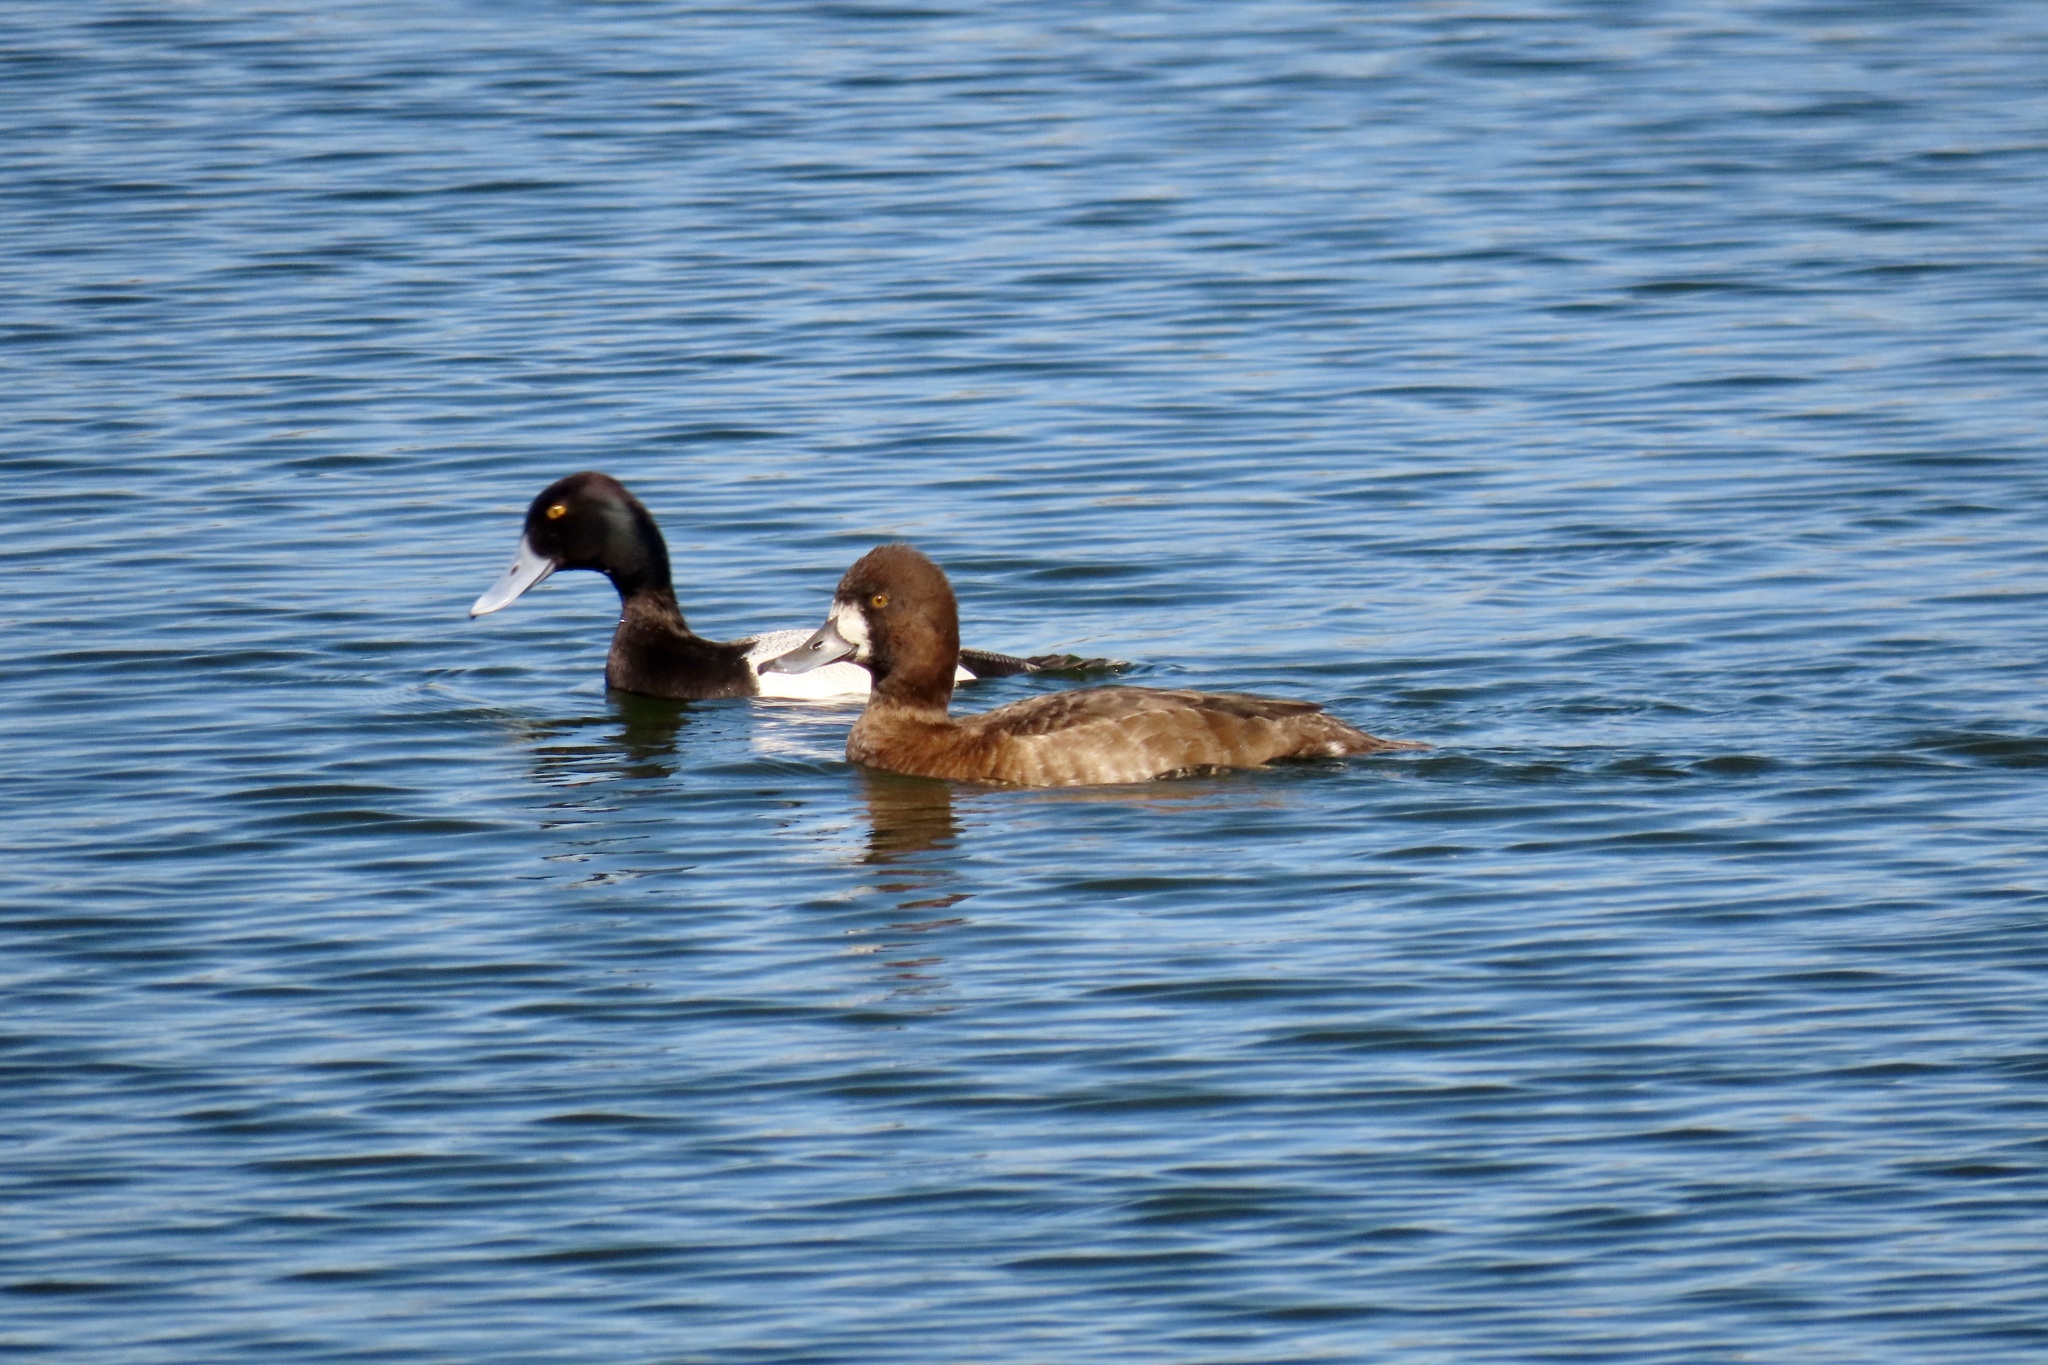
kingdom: Animalia
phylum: Chordata
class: Aves
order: Anseriformes
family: Anatidae
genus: Aythya
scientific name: Aythya affinis
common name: Lesser scaup
